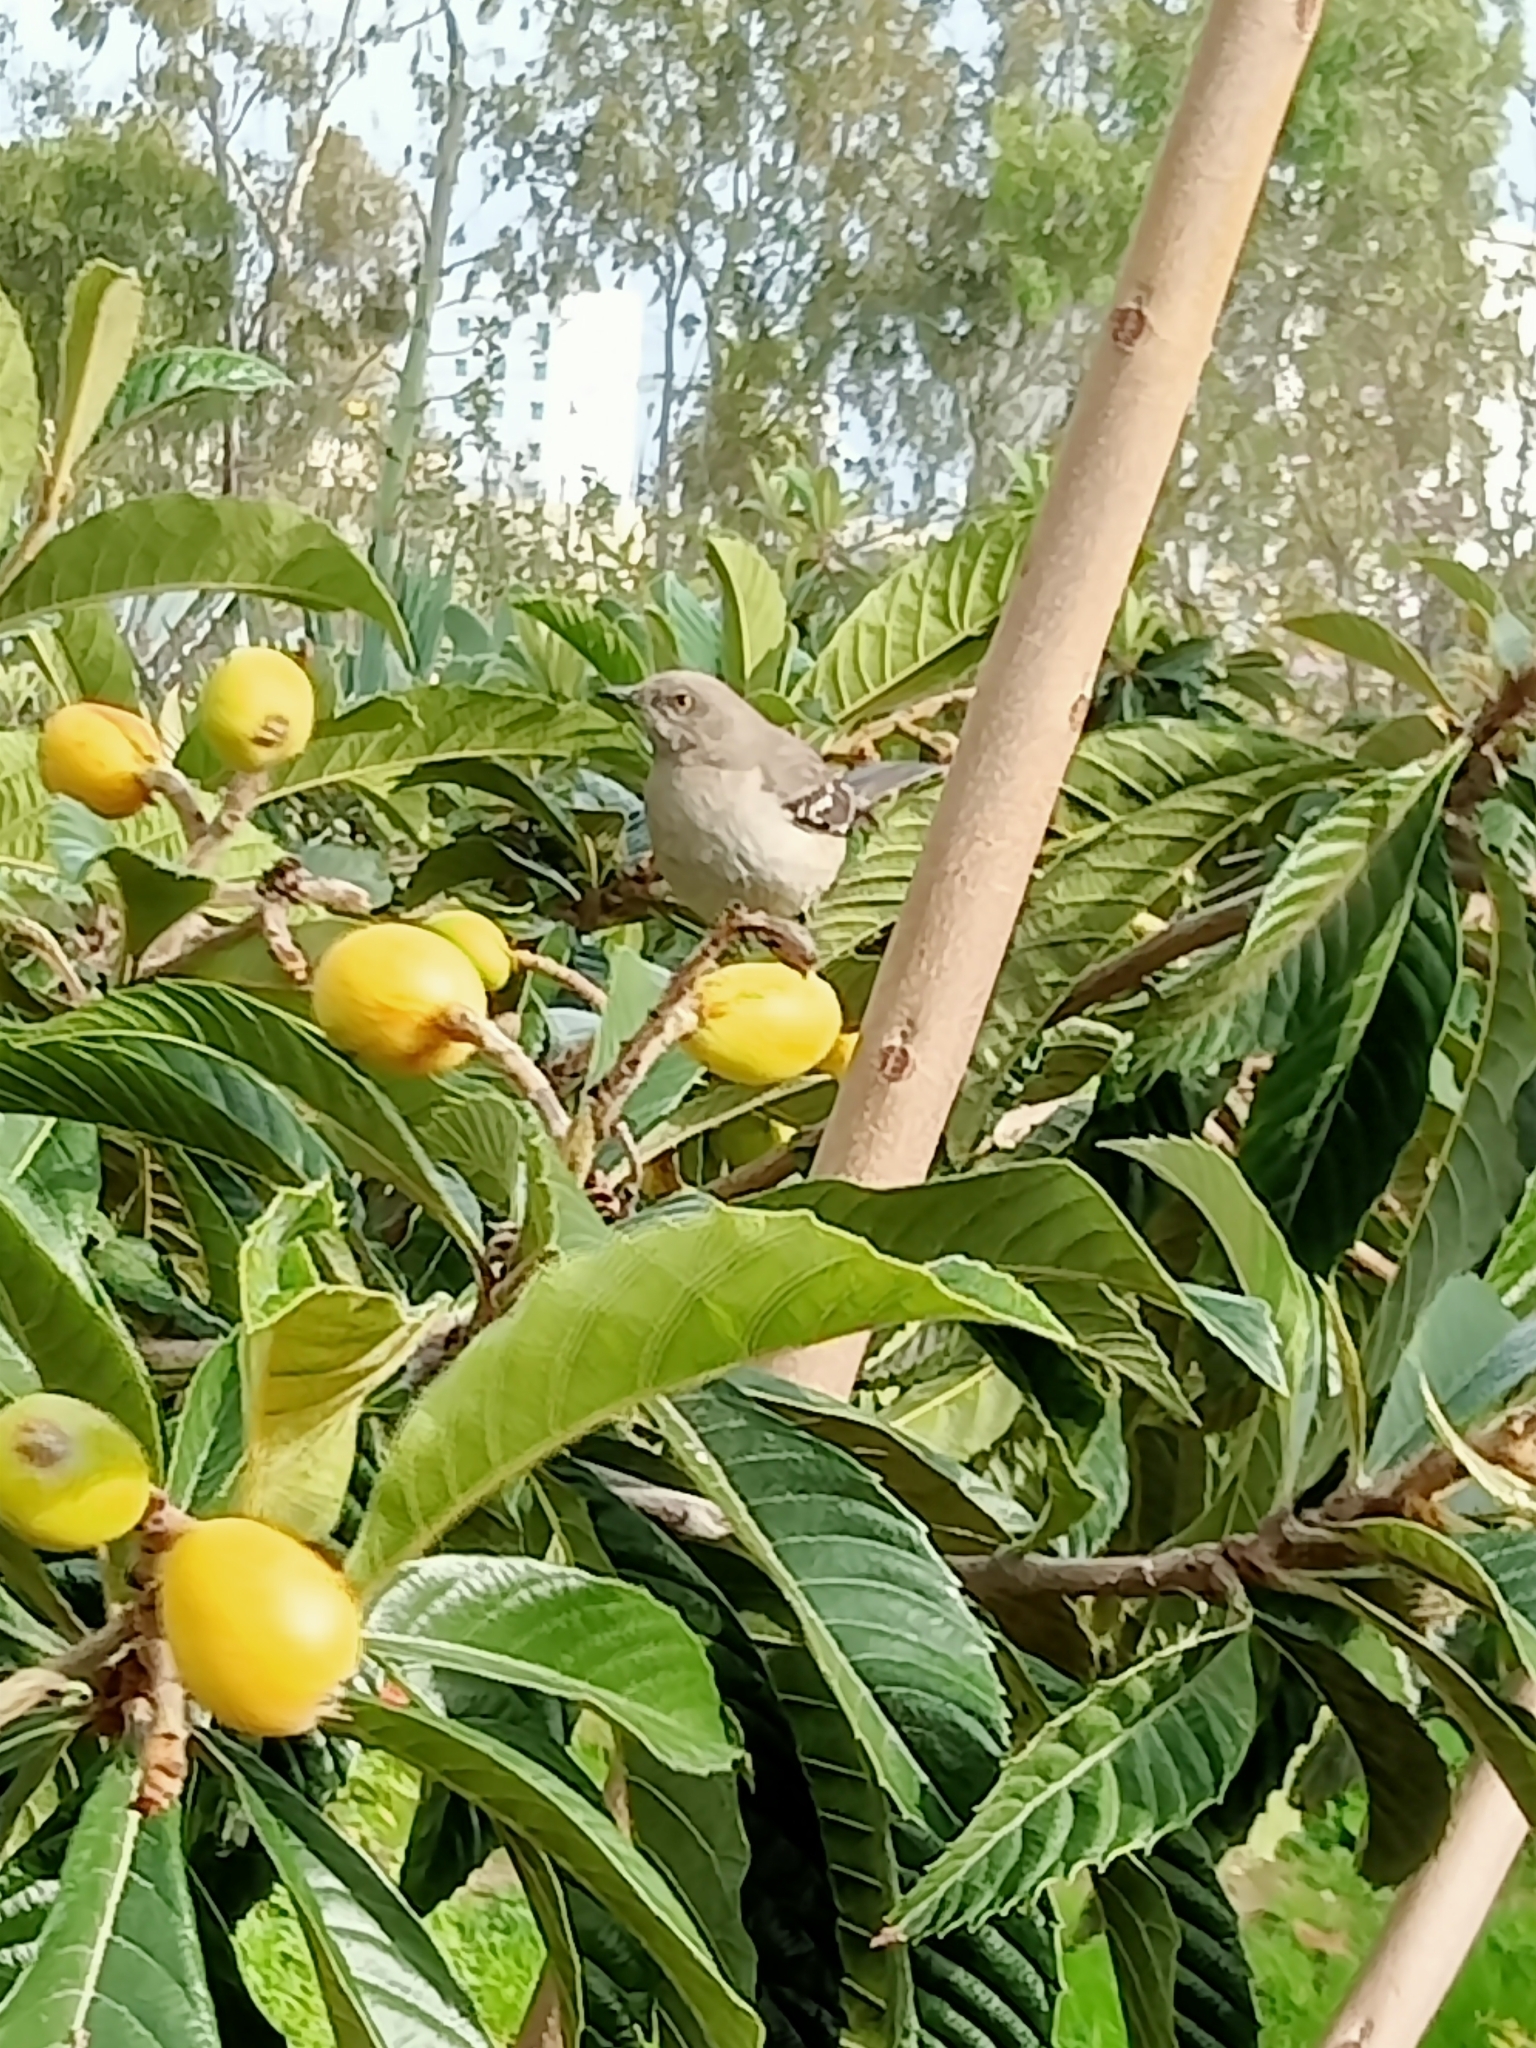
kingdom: Animalia
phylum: Chordata
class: Aves
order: Passeriformes
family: Mimidae
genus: Mimus
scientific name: Mimus polyglottos
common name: Northern mockingbird
